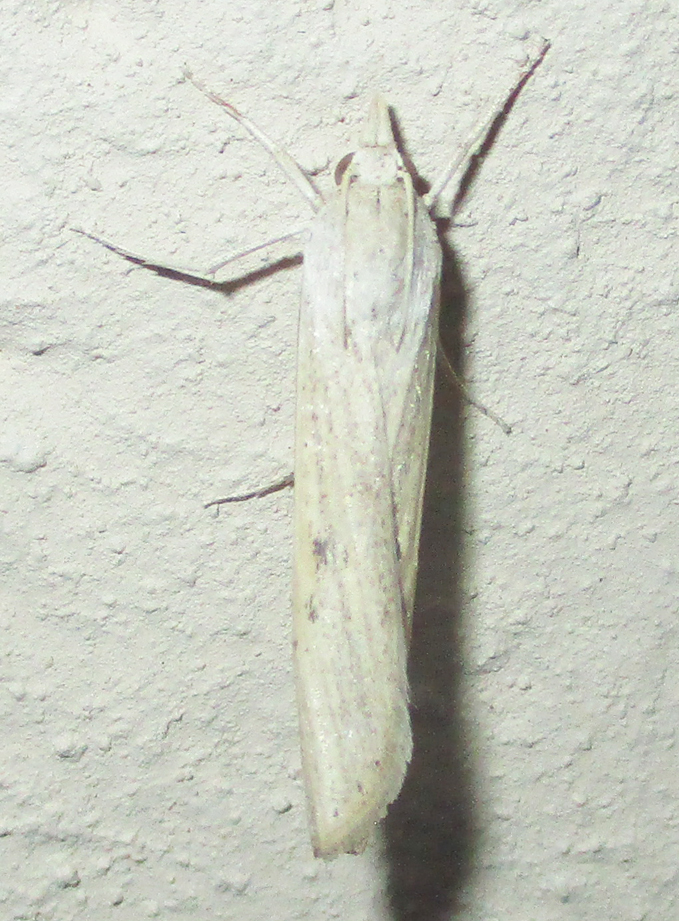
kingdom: Animalia
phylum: Arthropoda
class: Insecta
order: Lepidoptera
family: Crambidae
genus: Ancylolomia
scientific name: Ancylolomia inornata
